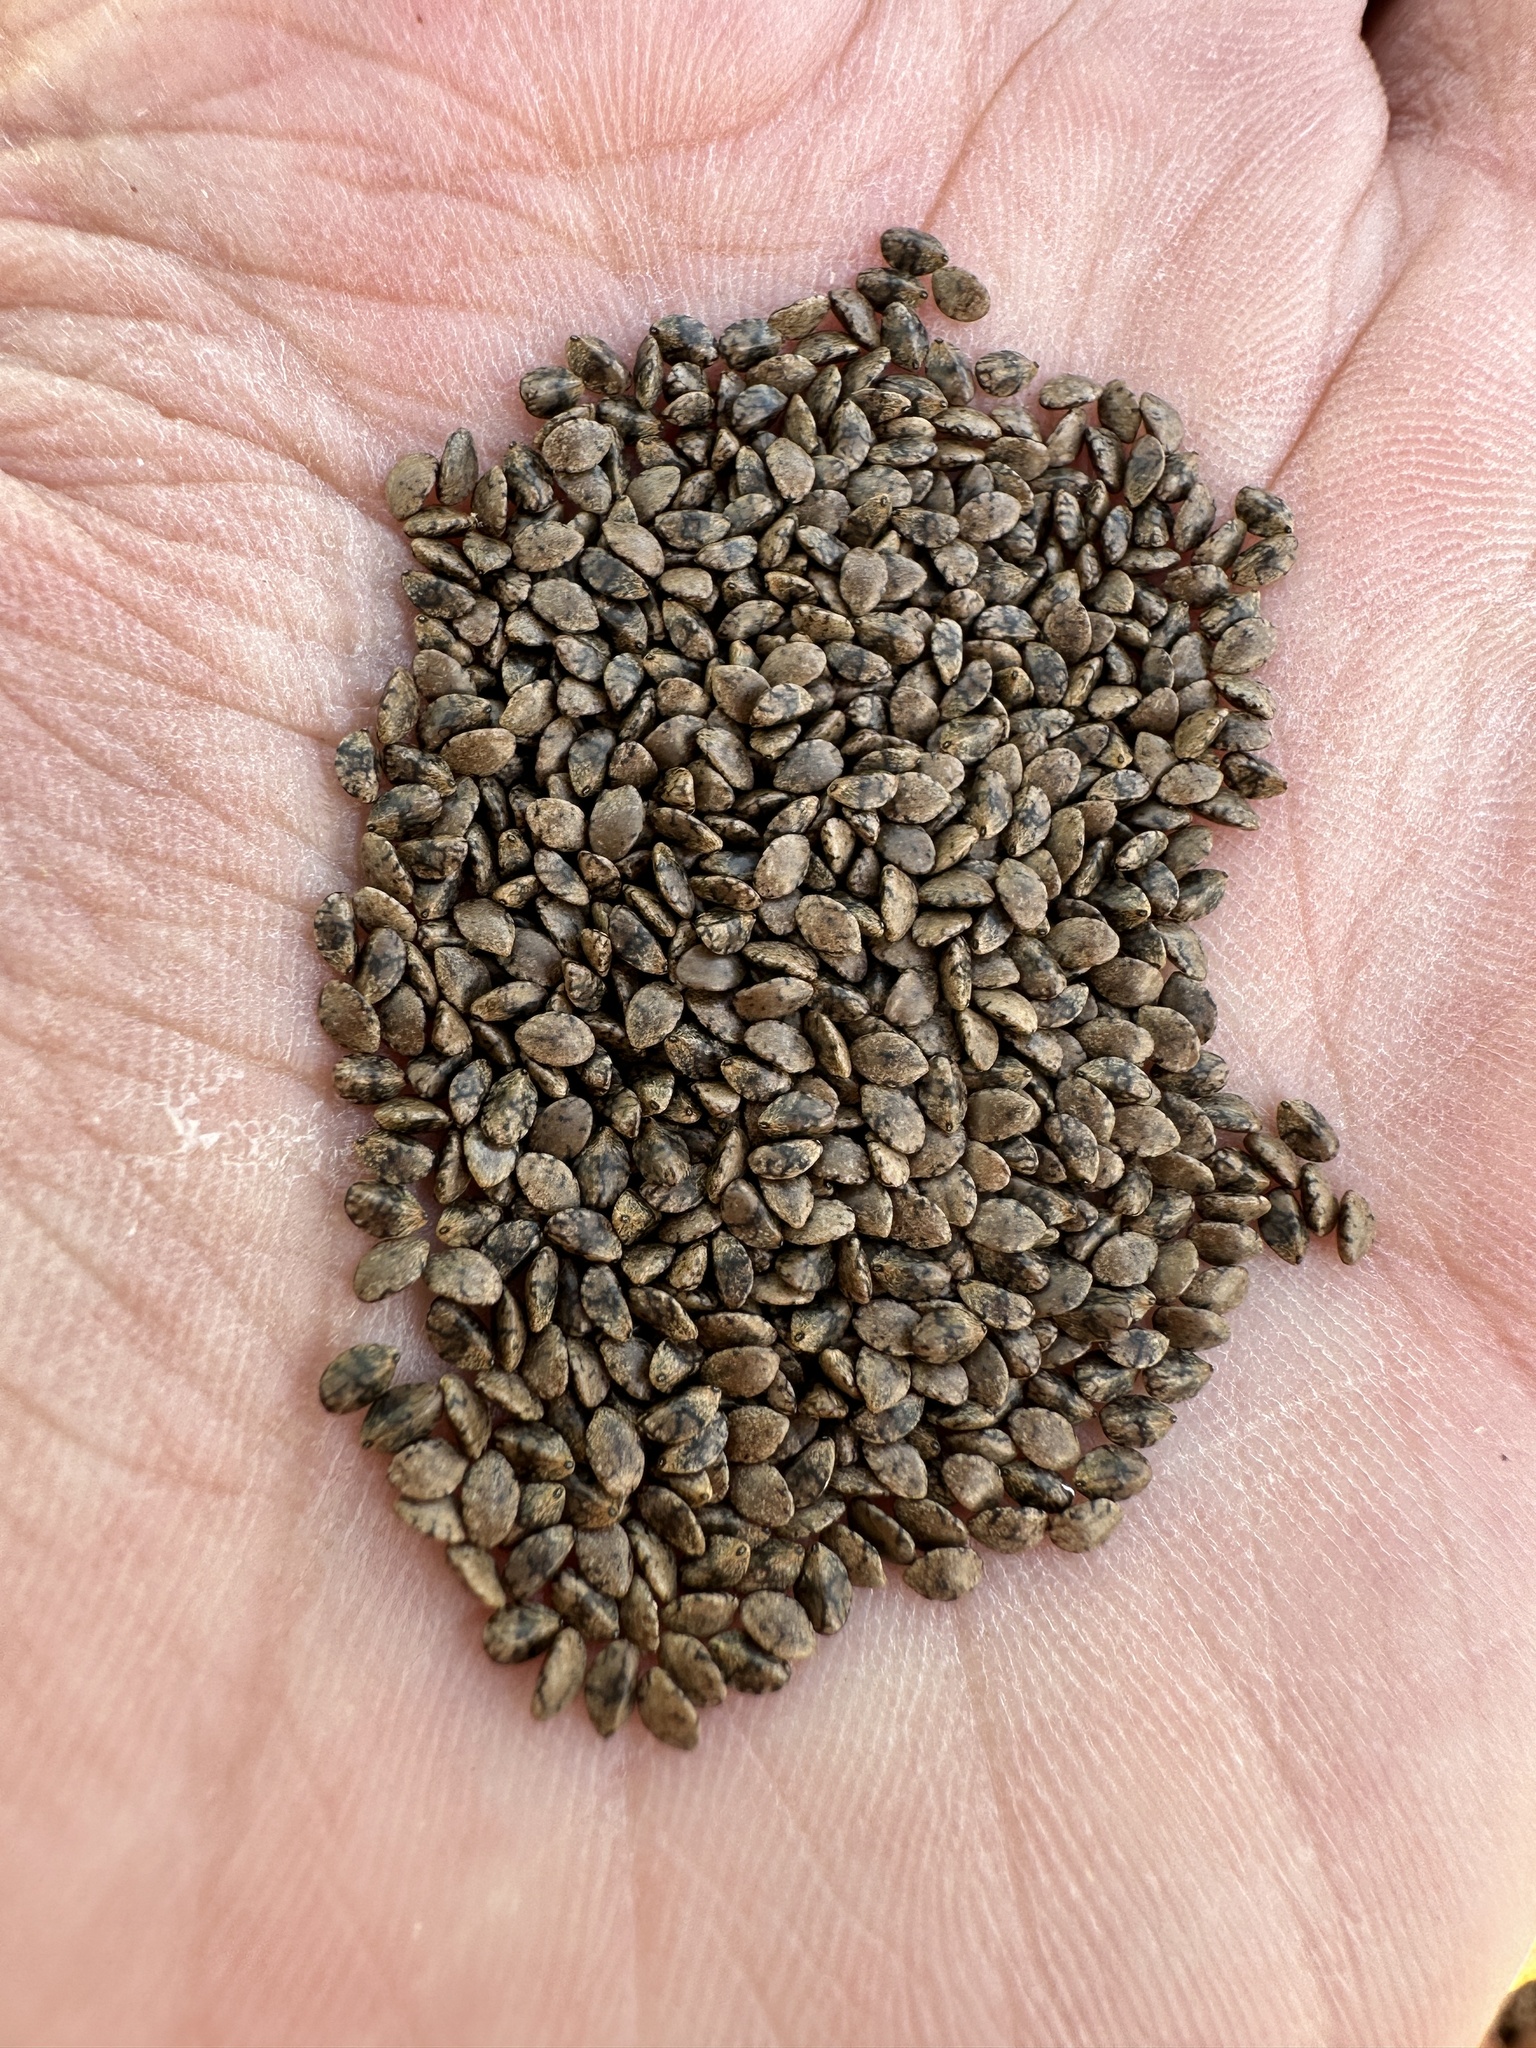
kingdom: Plantae
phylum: Tracheophyta
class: Magnoliopsida
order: Lamiales
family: Lamiaceae
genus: Salvia
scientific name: Salvia columbariae
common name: Chia
